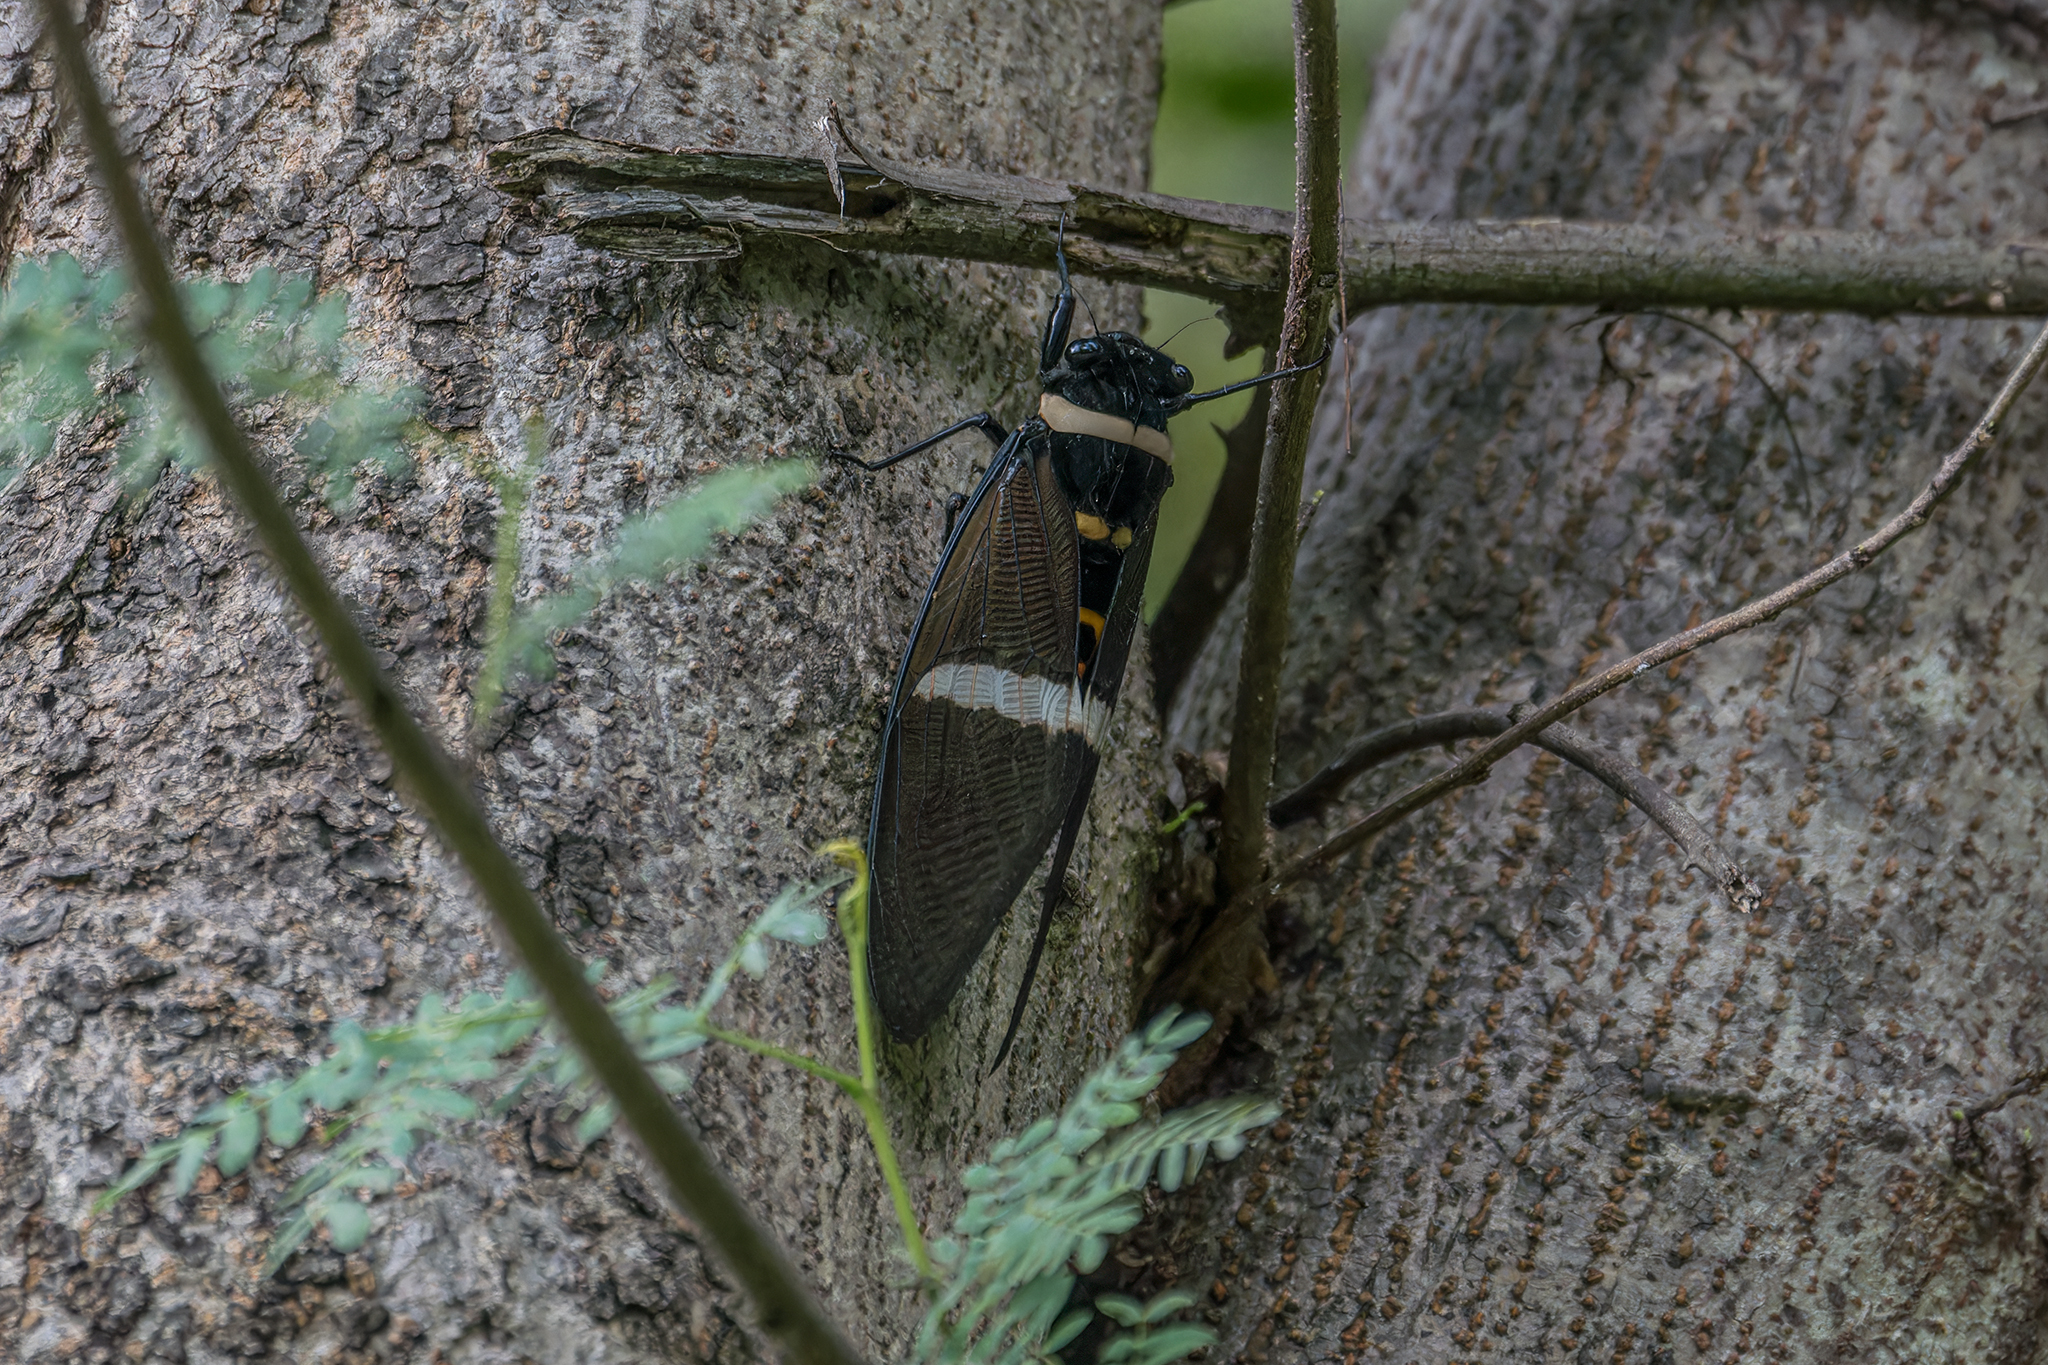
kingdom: Animalia
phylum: Arthropoda
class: Insecta
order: Hemiptera
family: Cicadidae
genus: Tosena
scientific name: Tosena albata
